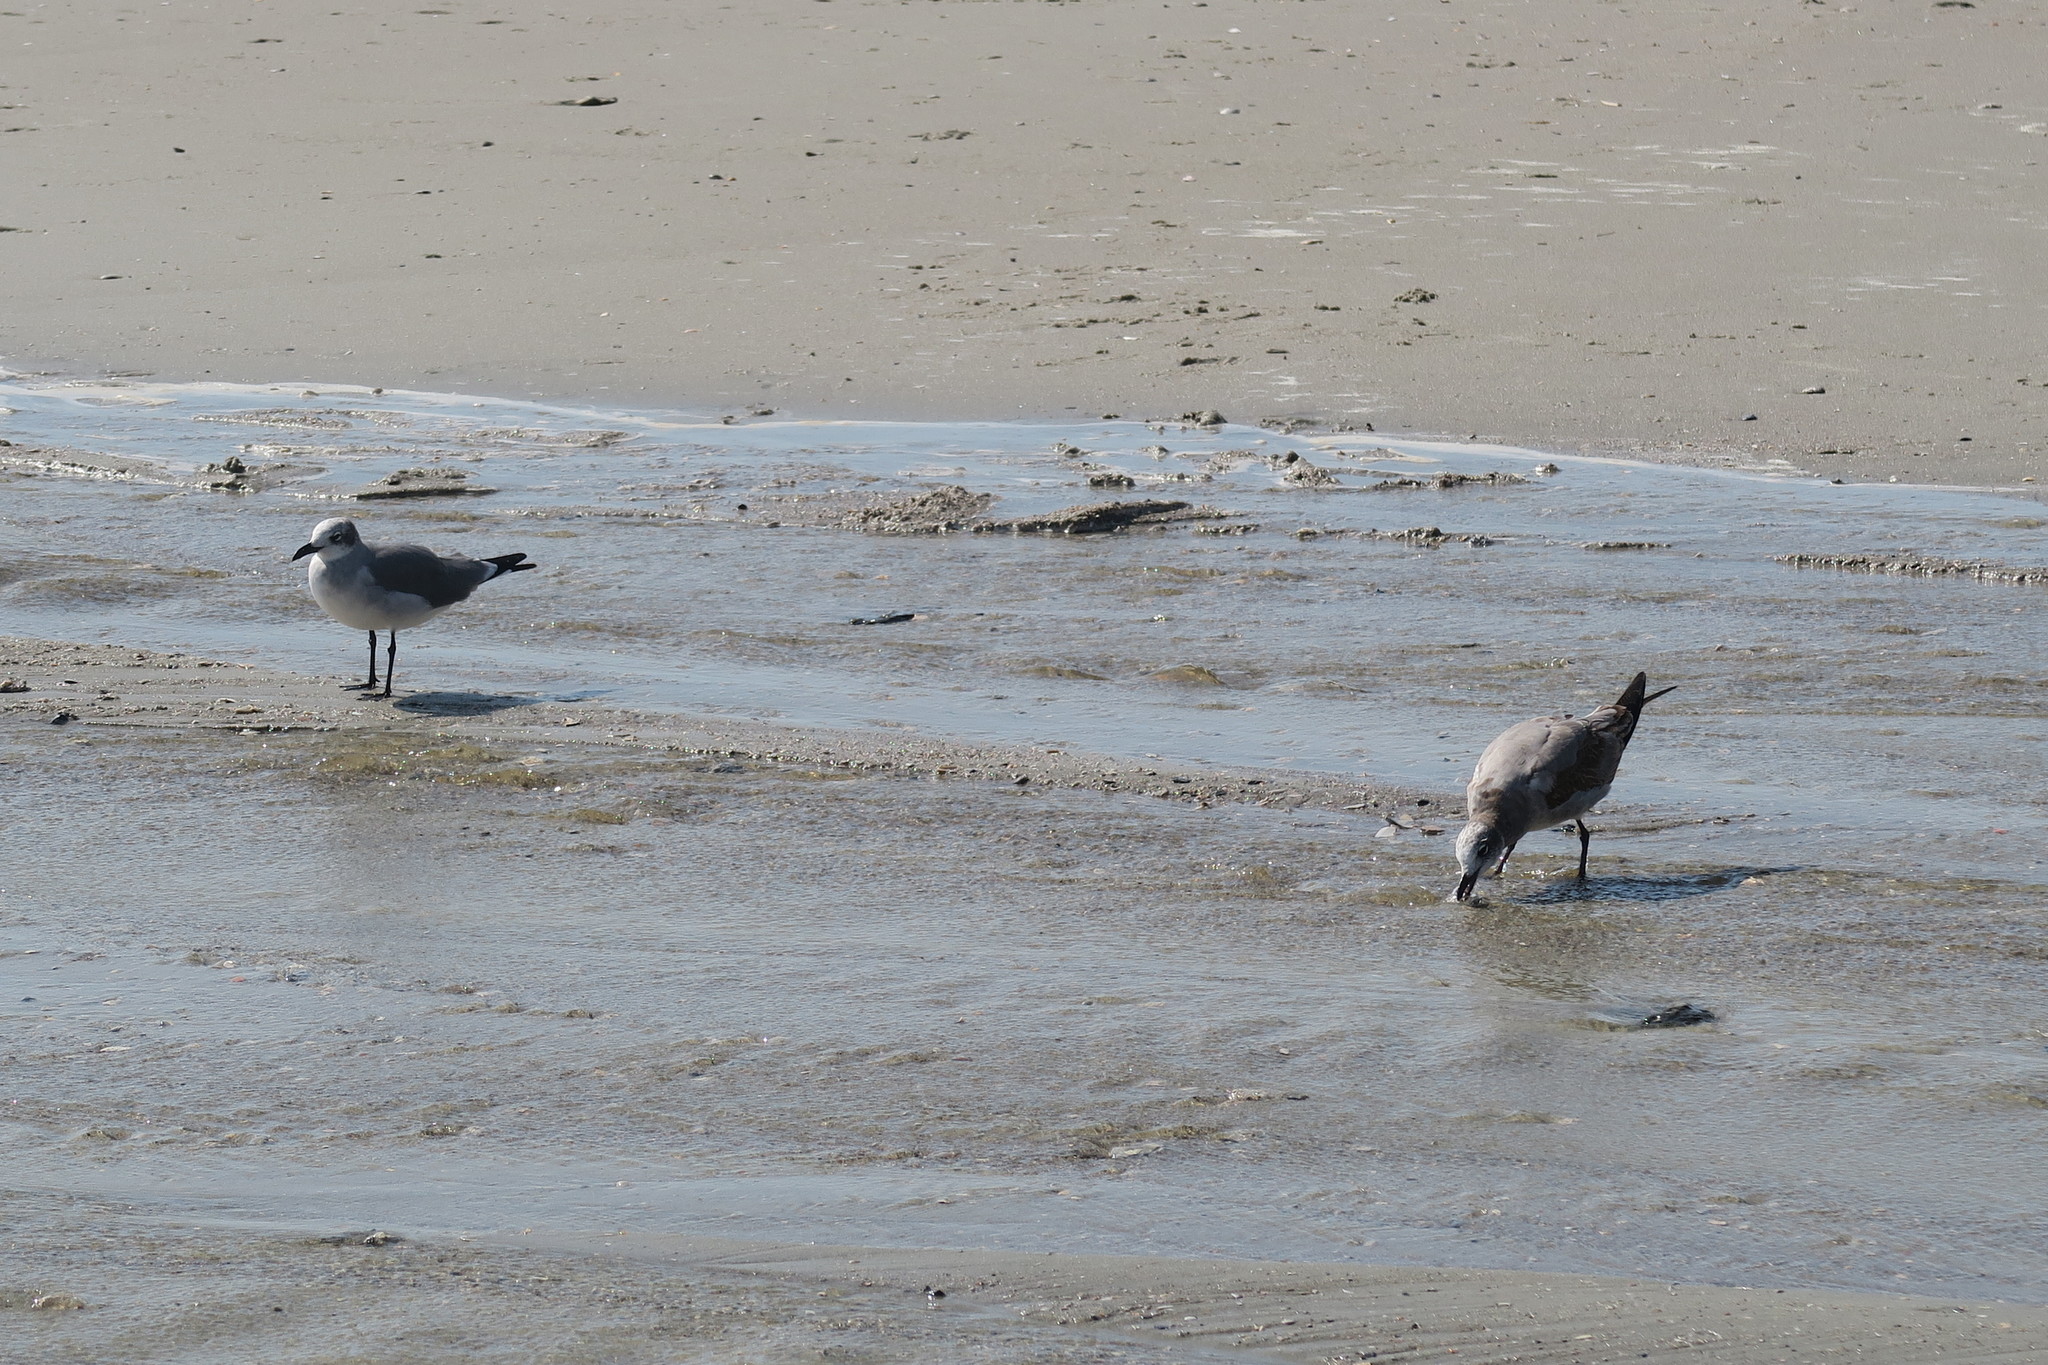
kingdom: Animalia
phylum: Chordata
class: Aves
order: Charadriiformes
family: Laridae
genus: Leucophaeus
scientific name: Leucophaeus atricilla
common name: Laughing gull
